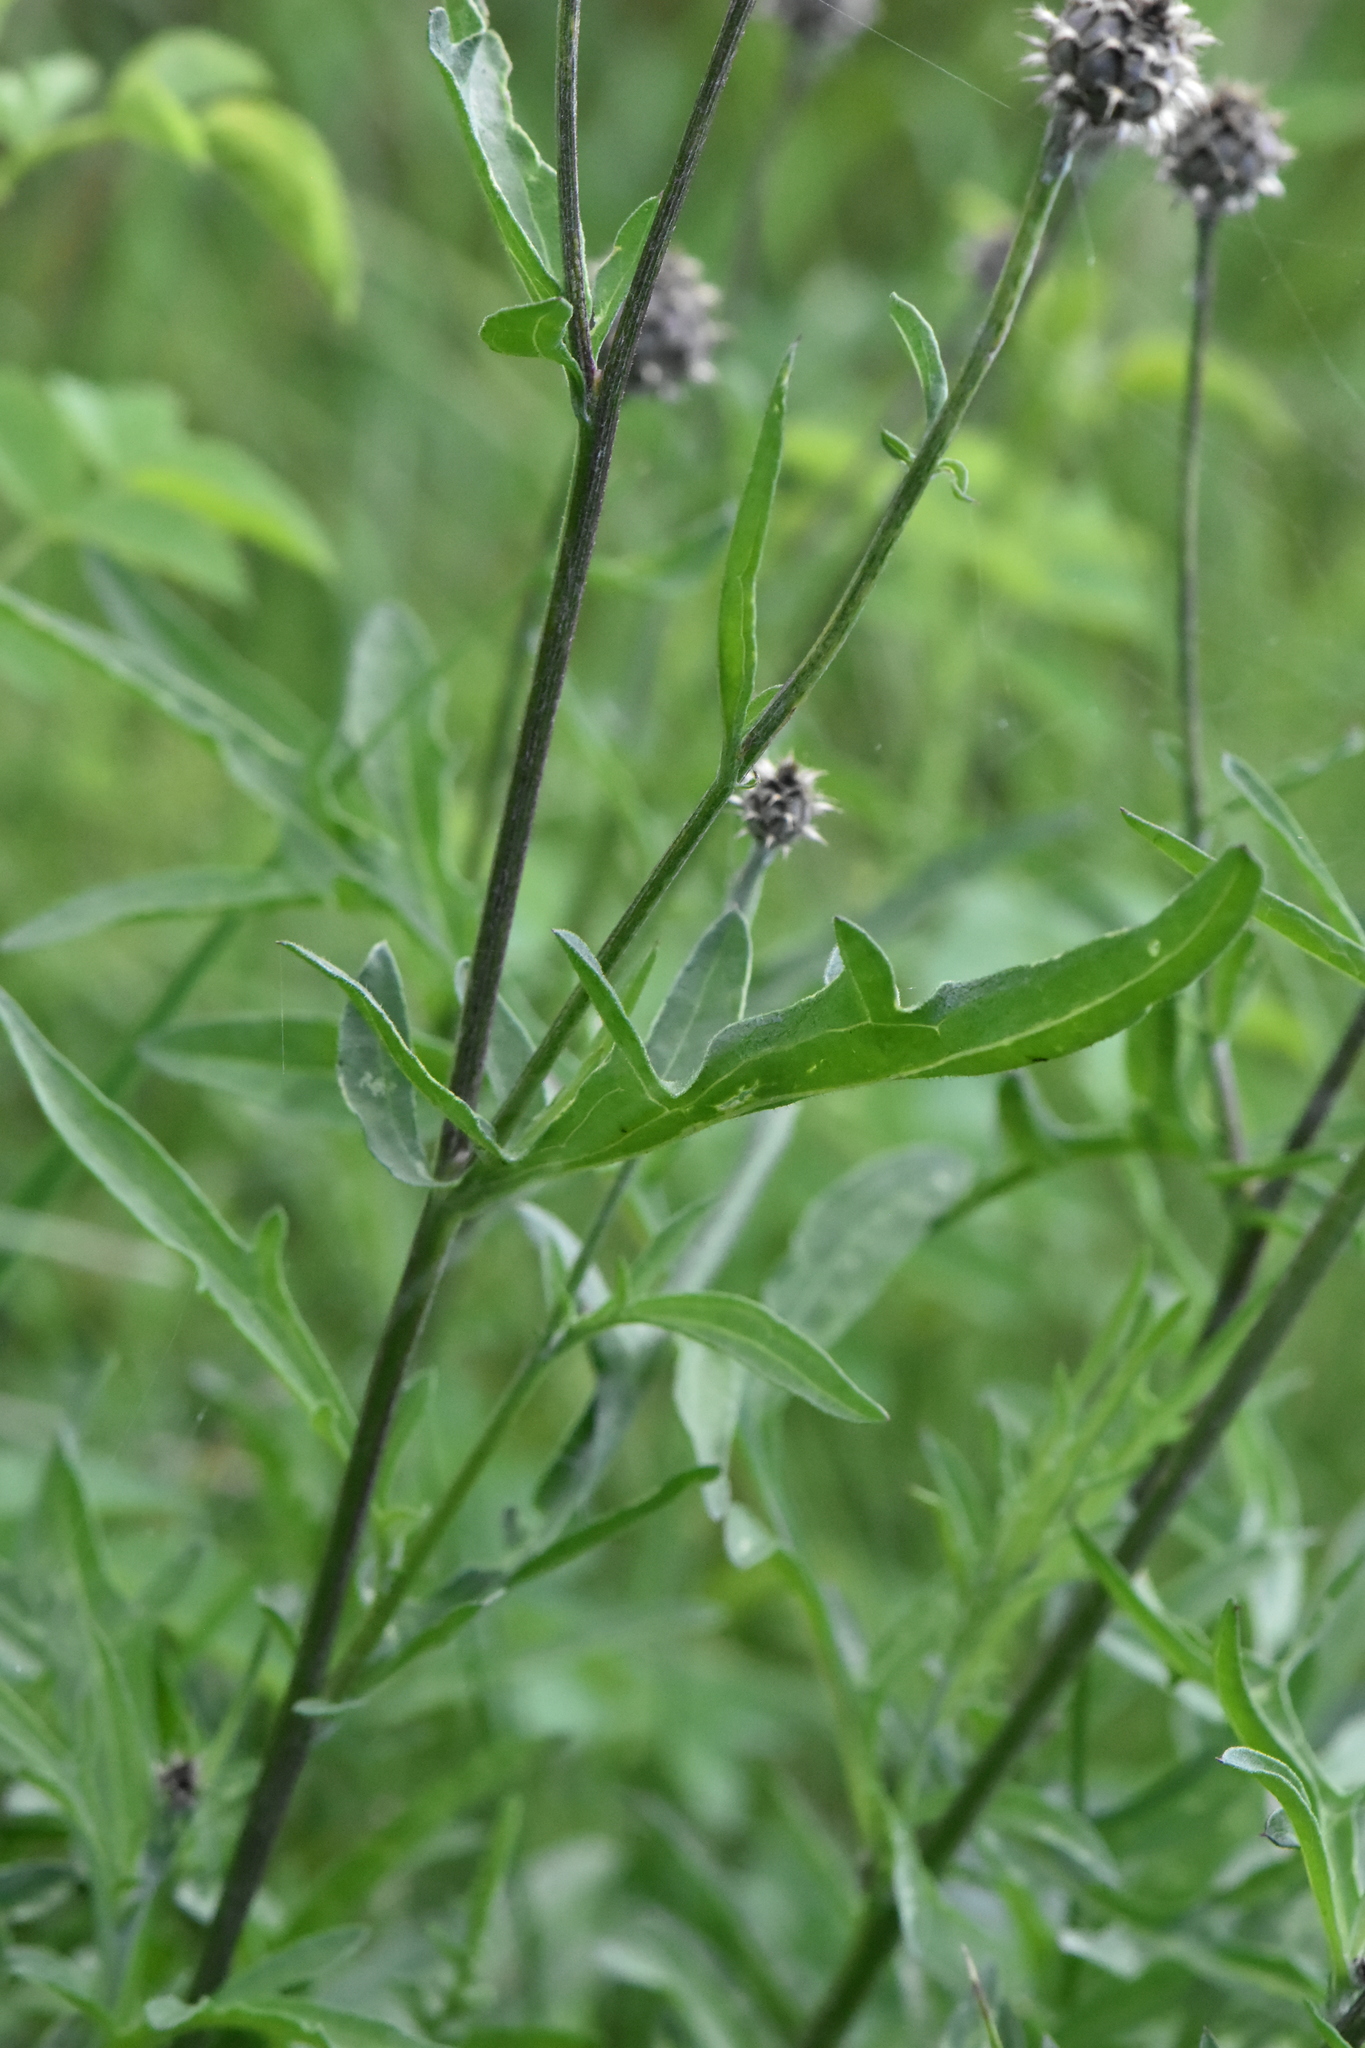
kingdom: Plantae
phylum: Tracheophyta
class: Magnoliopsida
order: Asterales
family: Asteraceae
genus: Centaurea
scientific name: Centaurea scabiosa
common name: Greater knapweed
